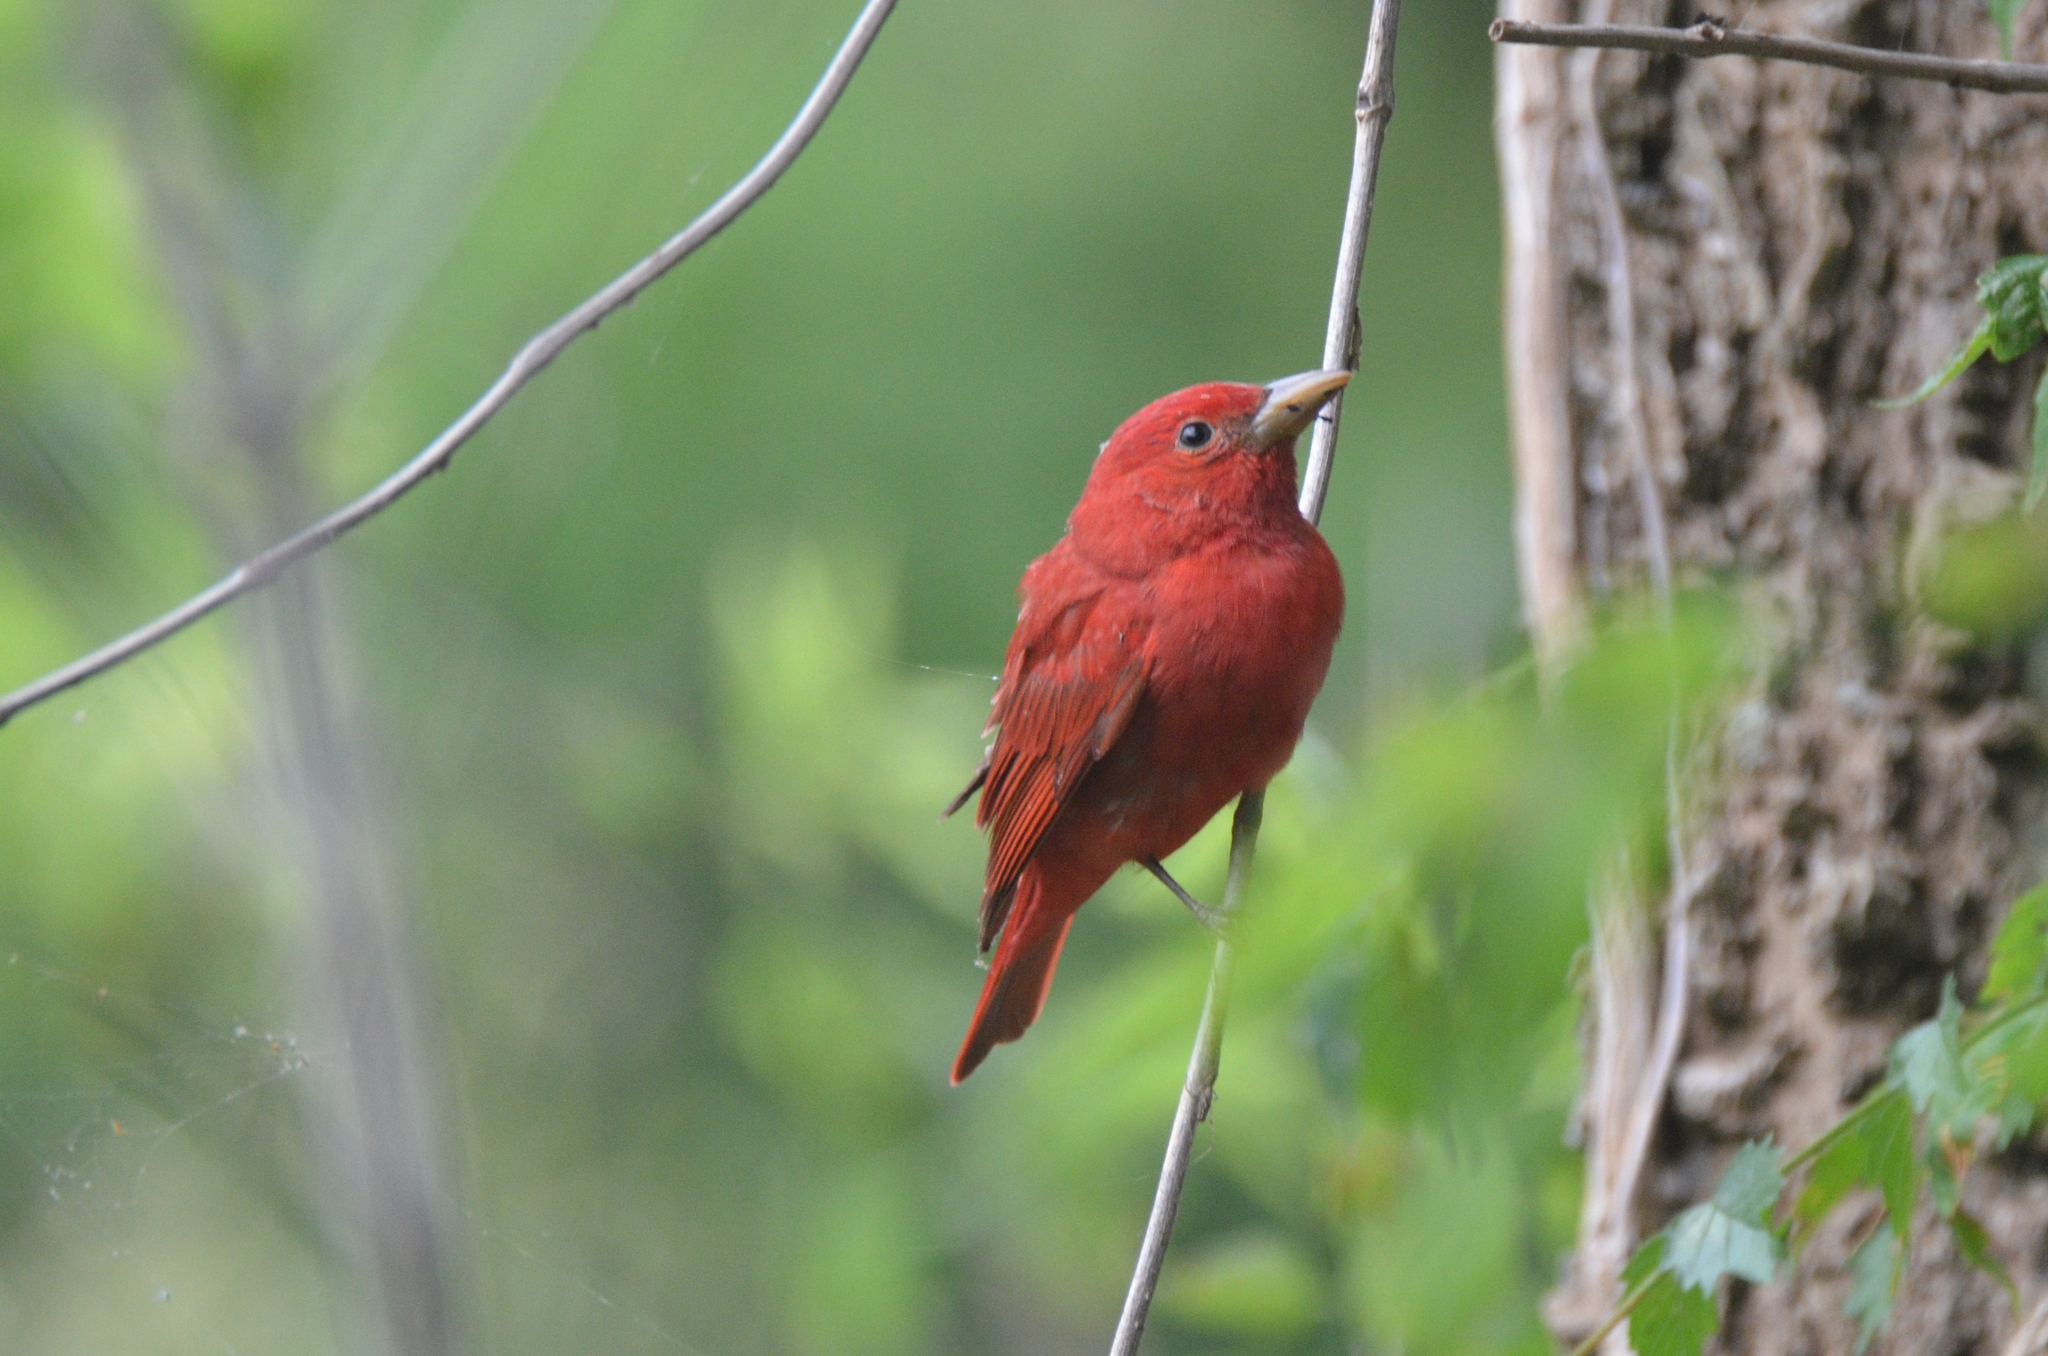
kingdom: Animalia
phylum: Chordata
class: Aves
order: Passeriformes
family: Cardinalidae
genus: Piranga
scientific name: Piranga rubra
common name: Summer tanager
